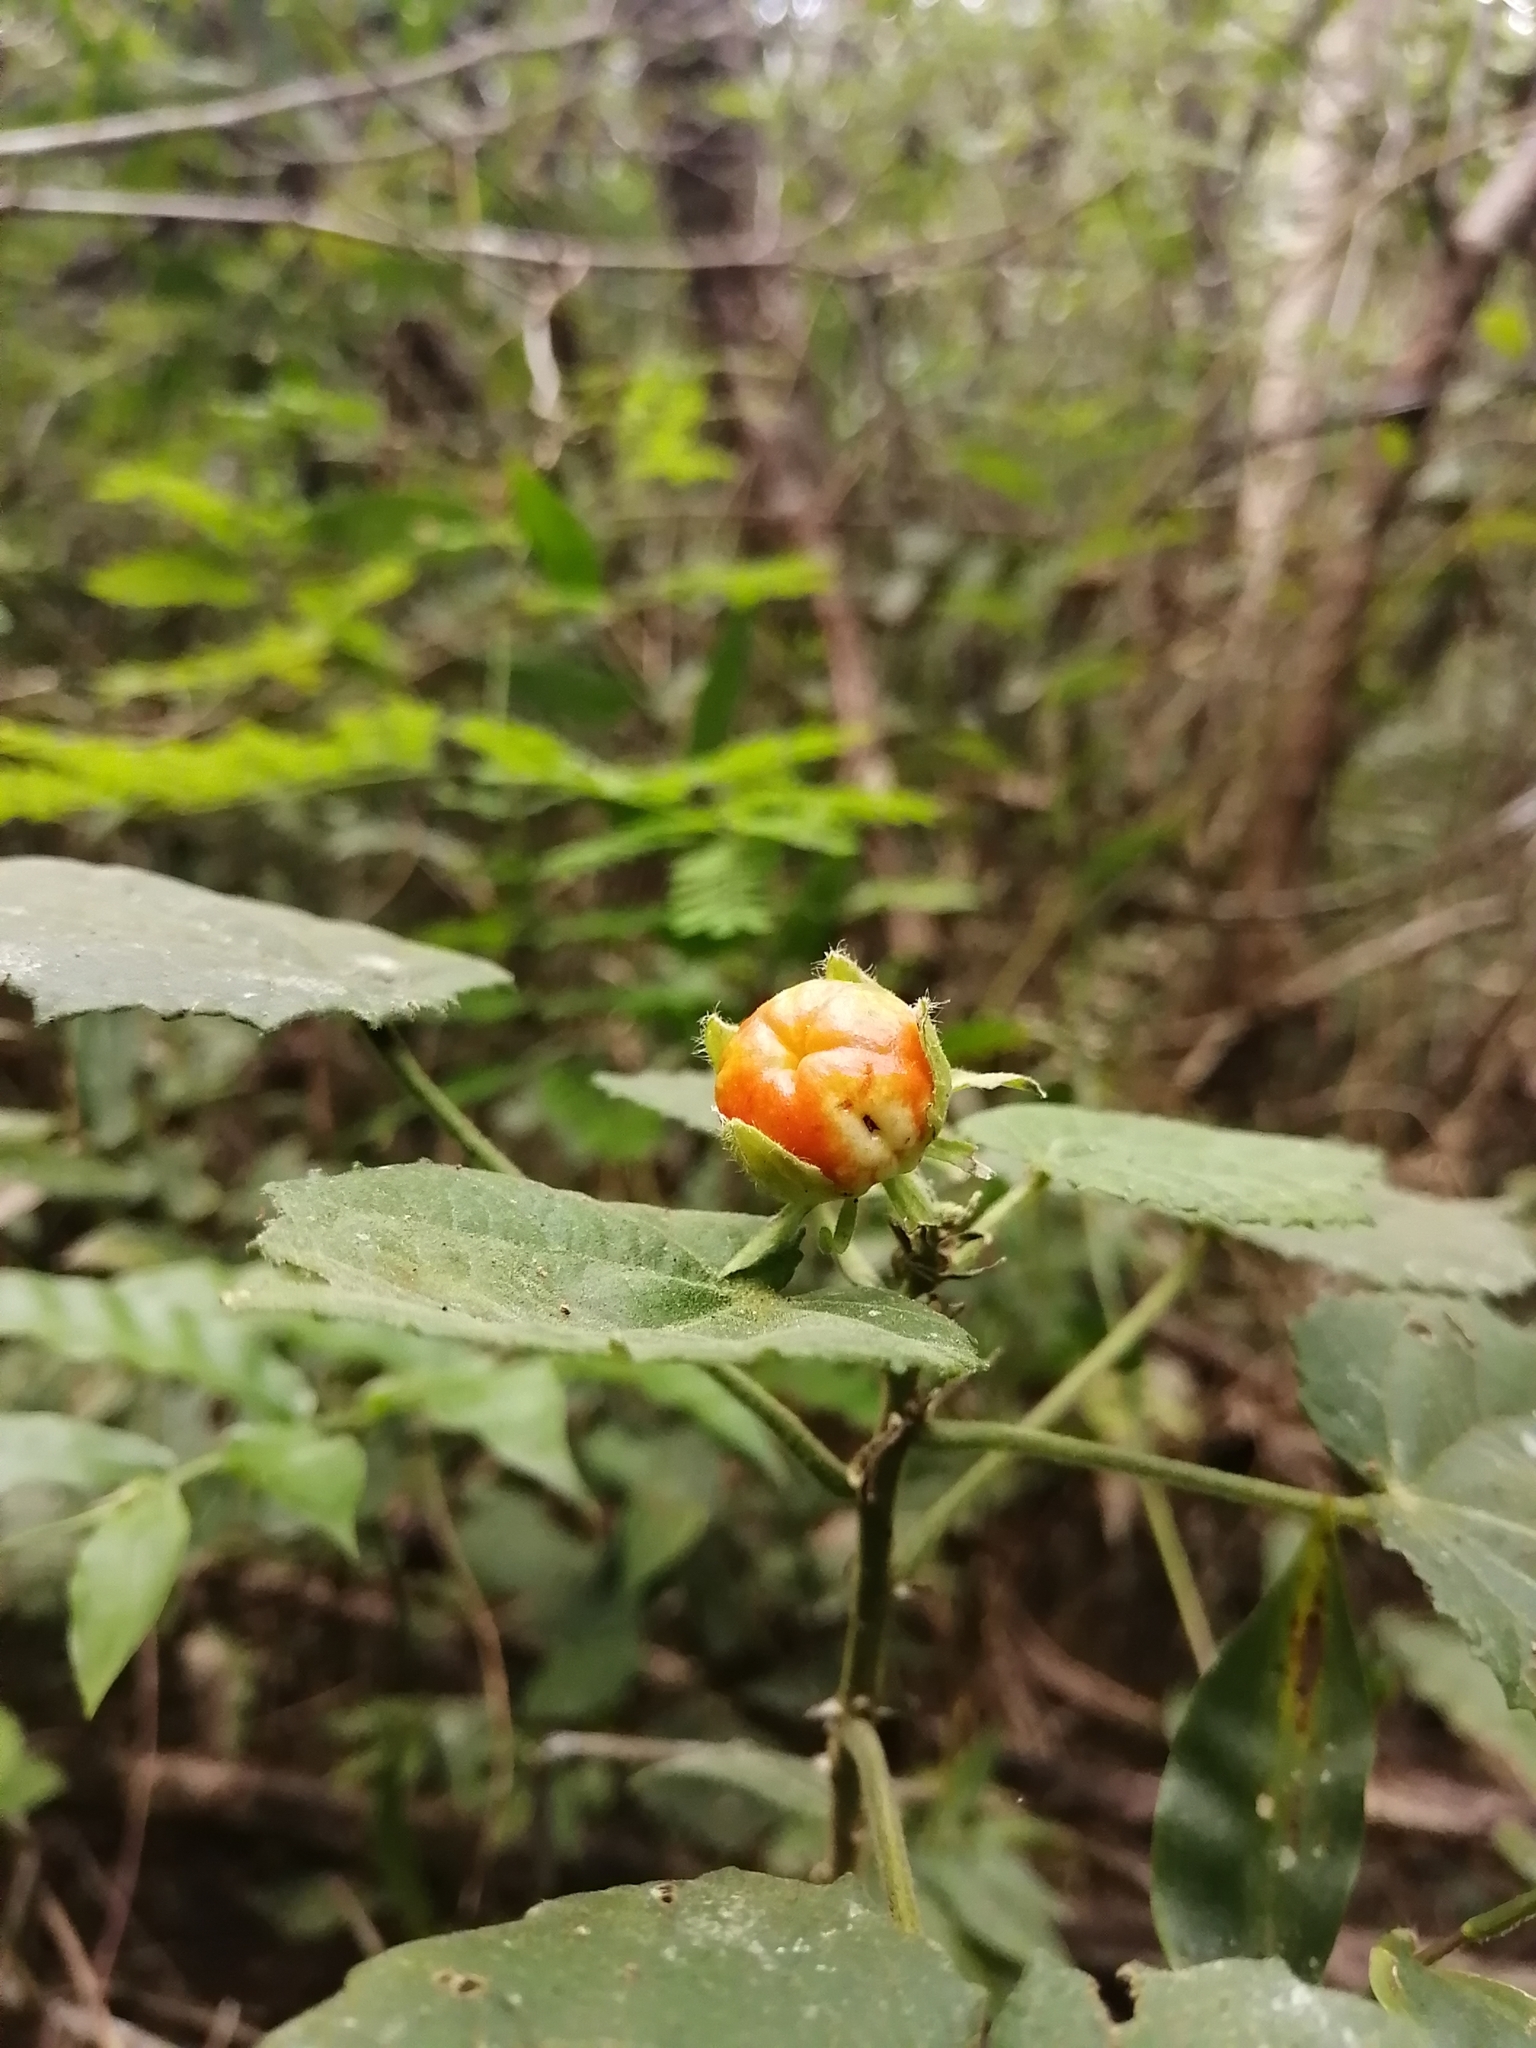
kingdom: Plantae
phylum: Tracheophyta
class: Magnoliopsida
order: Malvales
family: Malvaceae
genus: Malvaviscus
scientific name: Malvaviscus arboreus
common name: Wax mallow
